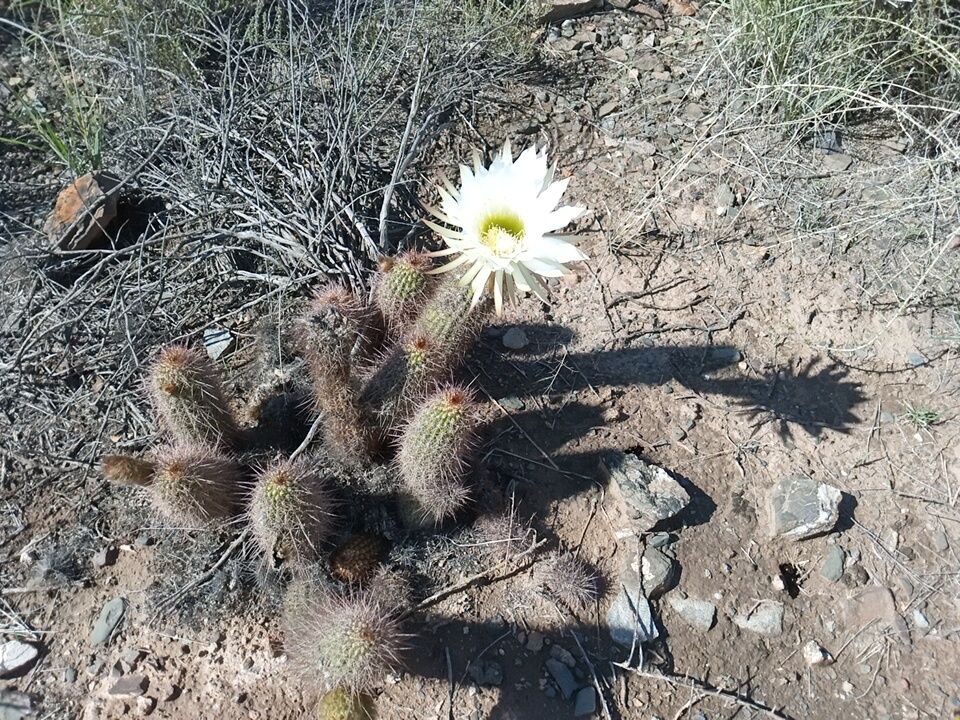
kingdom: Plantae
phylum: Tracheophyta
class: Magnoliopsida
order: Caryophyllales
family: Cactaceae
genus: Soehrensia
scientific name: Soehrensia strigosa
